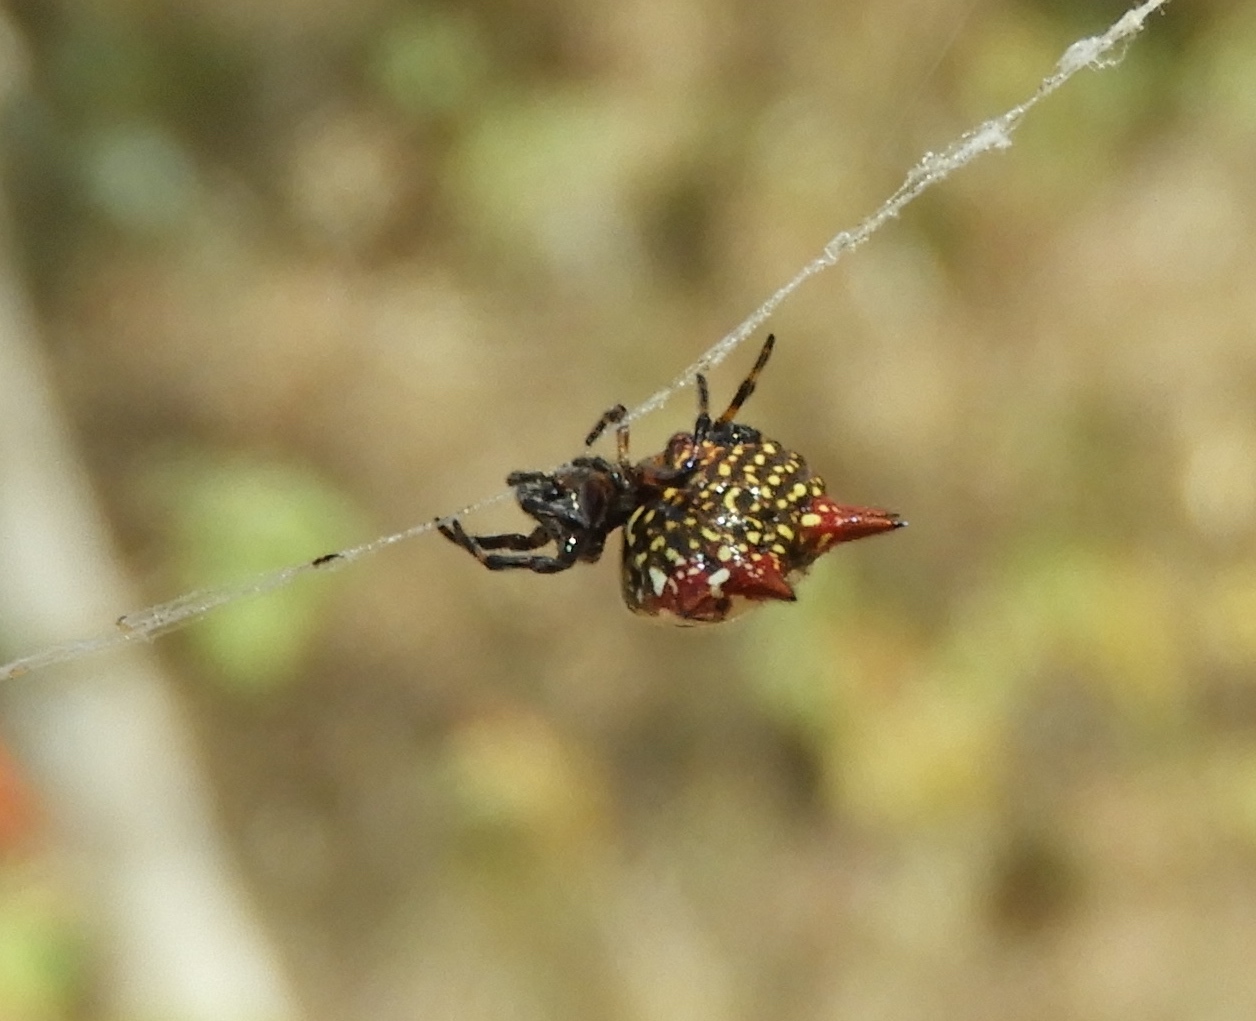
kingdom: Animalia
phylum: Arthropoda
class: Arachnida
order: Araneae
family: Araneidae
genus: Gasteracantha
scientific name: Gasteracantha cancriformis
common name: Orb weavers
